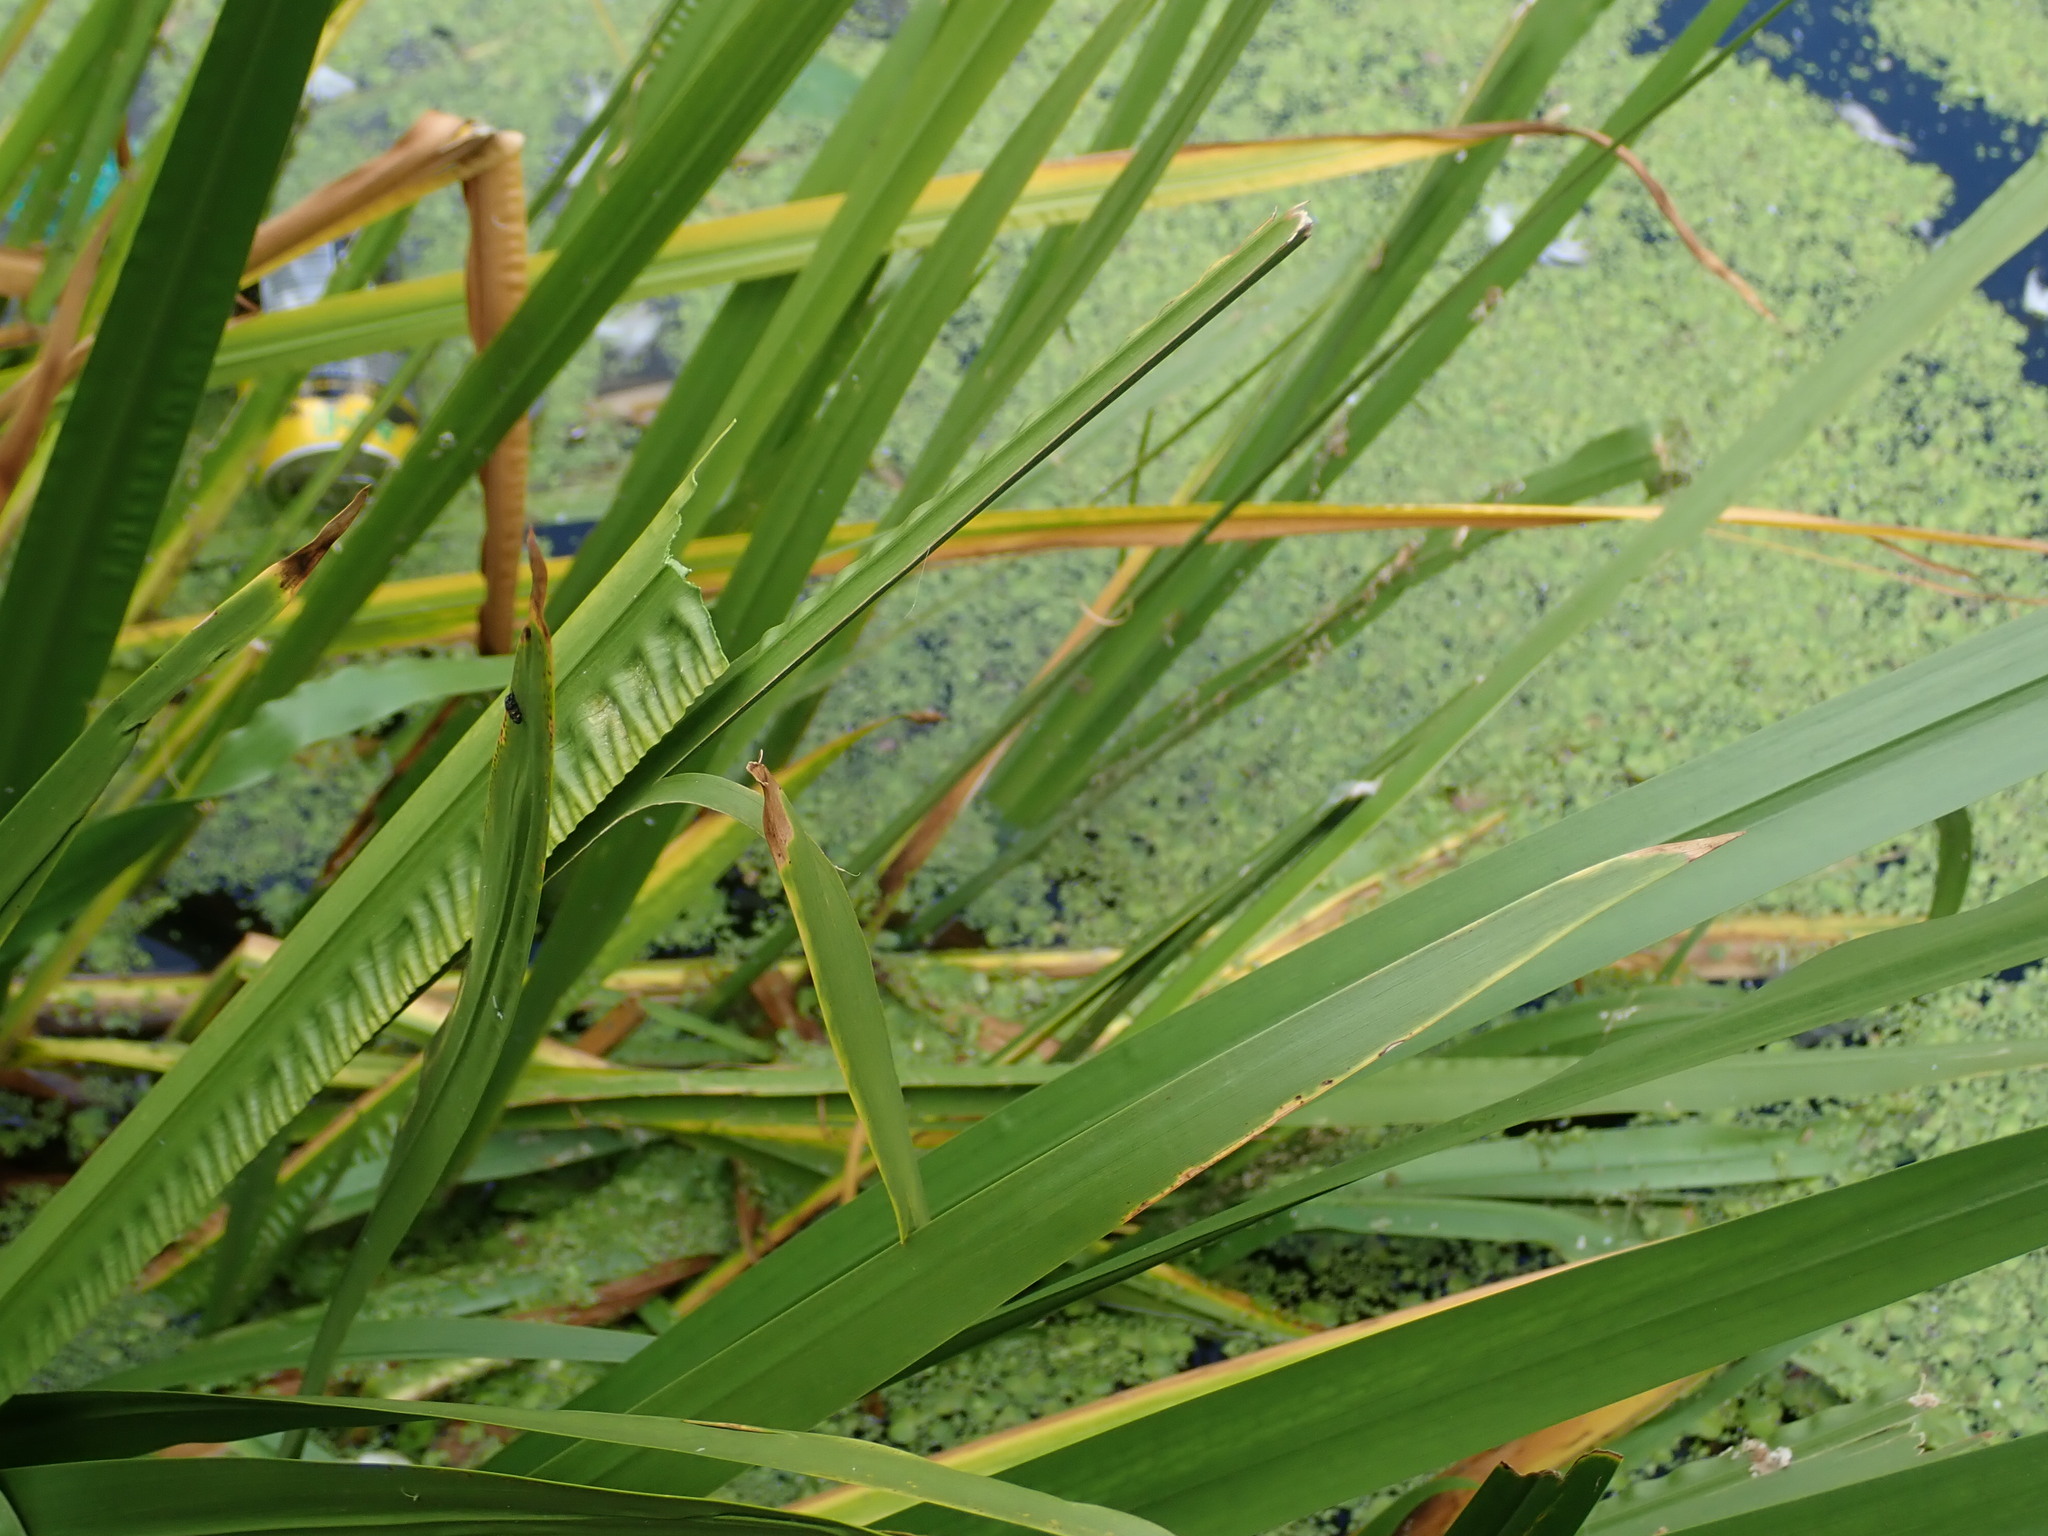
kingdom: Plantae
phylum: Tracheophyta
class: Liliopsida
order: Acorales
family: Acoraceae
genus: Acorus
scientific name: Acorus calamus
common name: Sweet-flag
